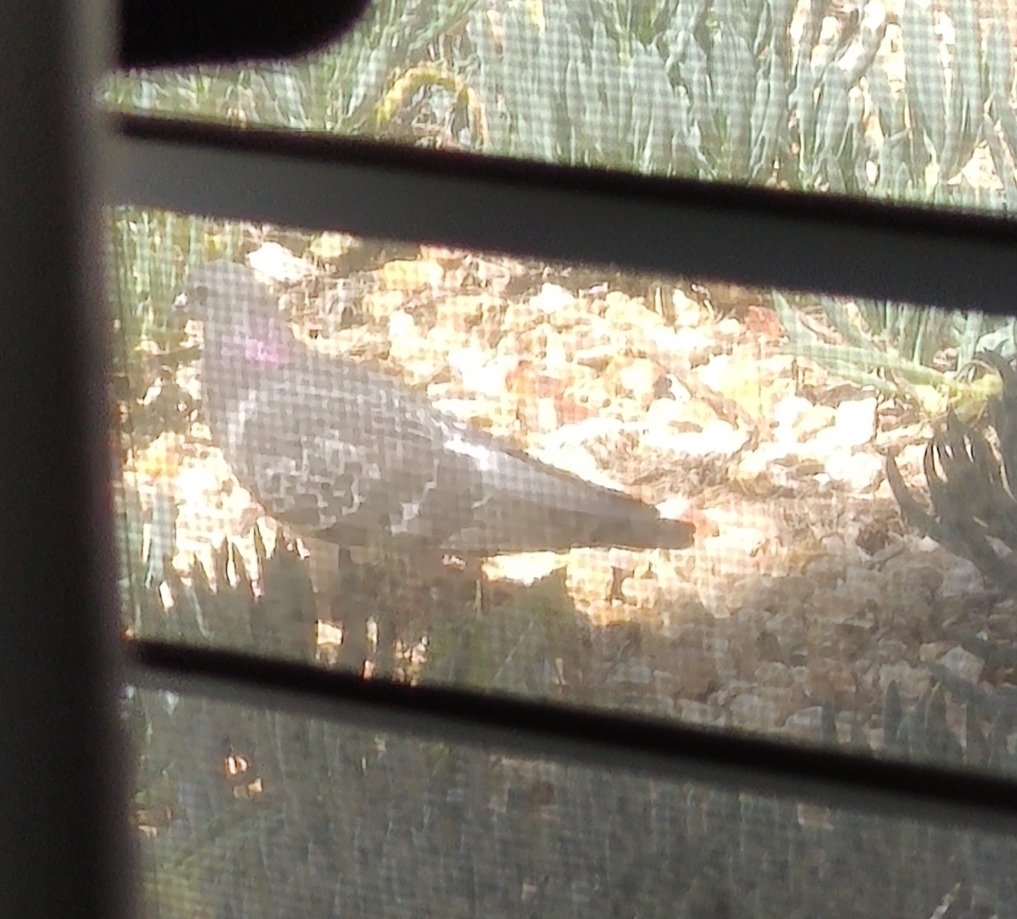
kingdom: Animalia
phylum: Chordata
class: Aves
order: Columbiformes
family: Columbidae
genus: Columba
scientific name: Columba livia
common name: Rock pigeon
